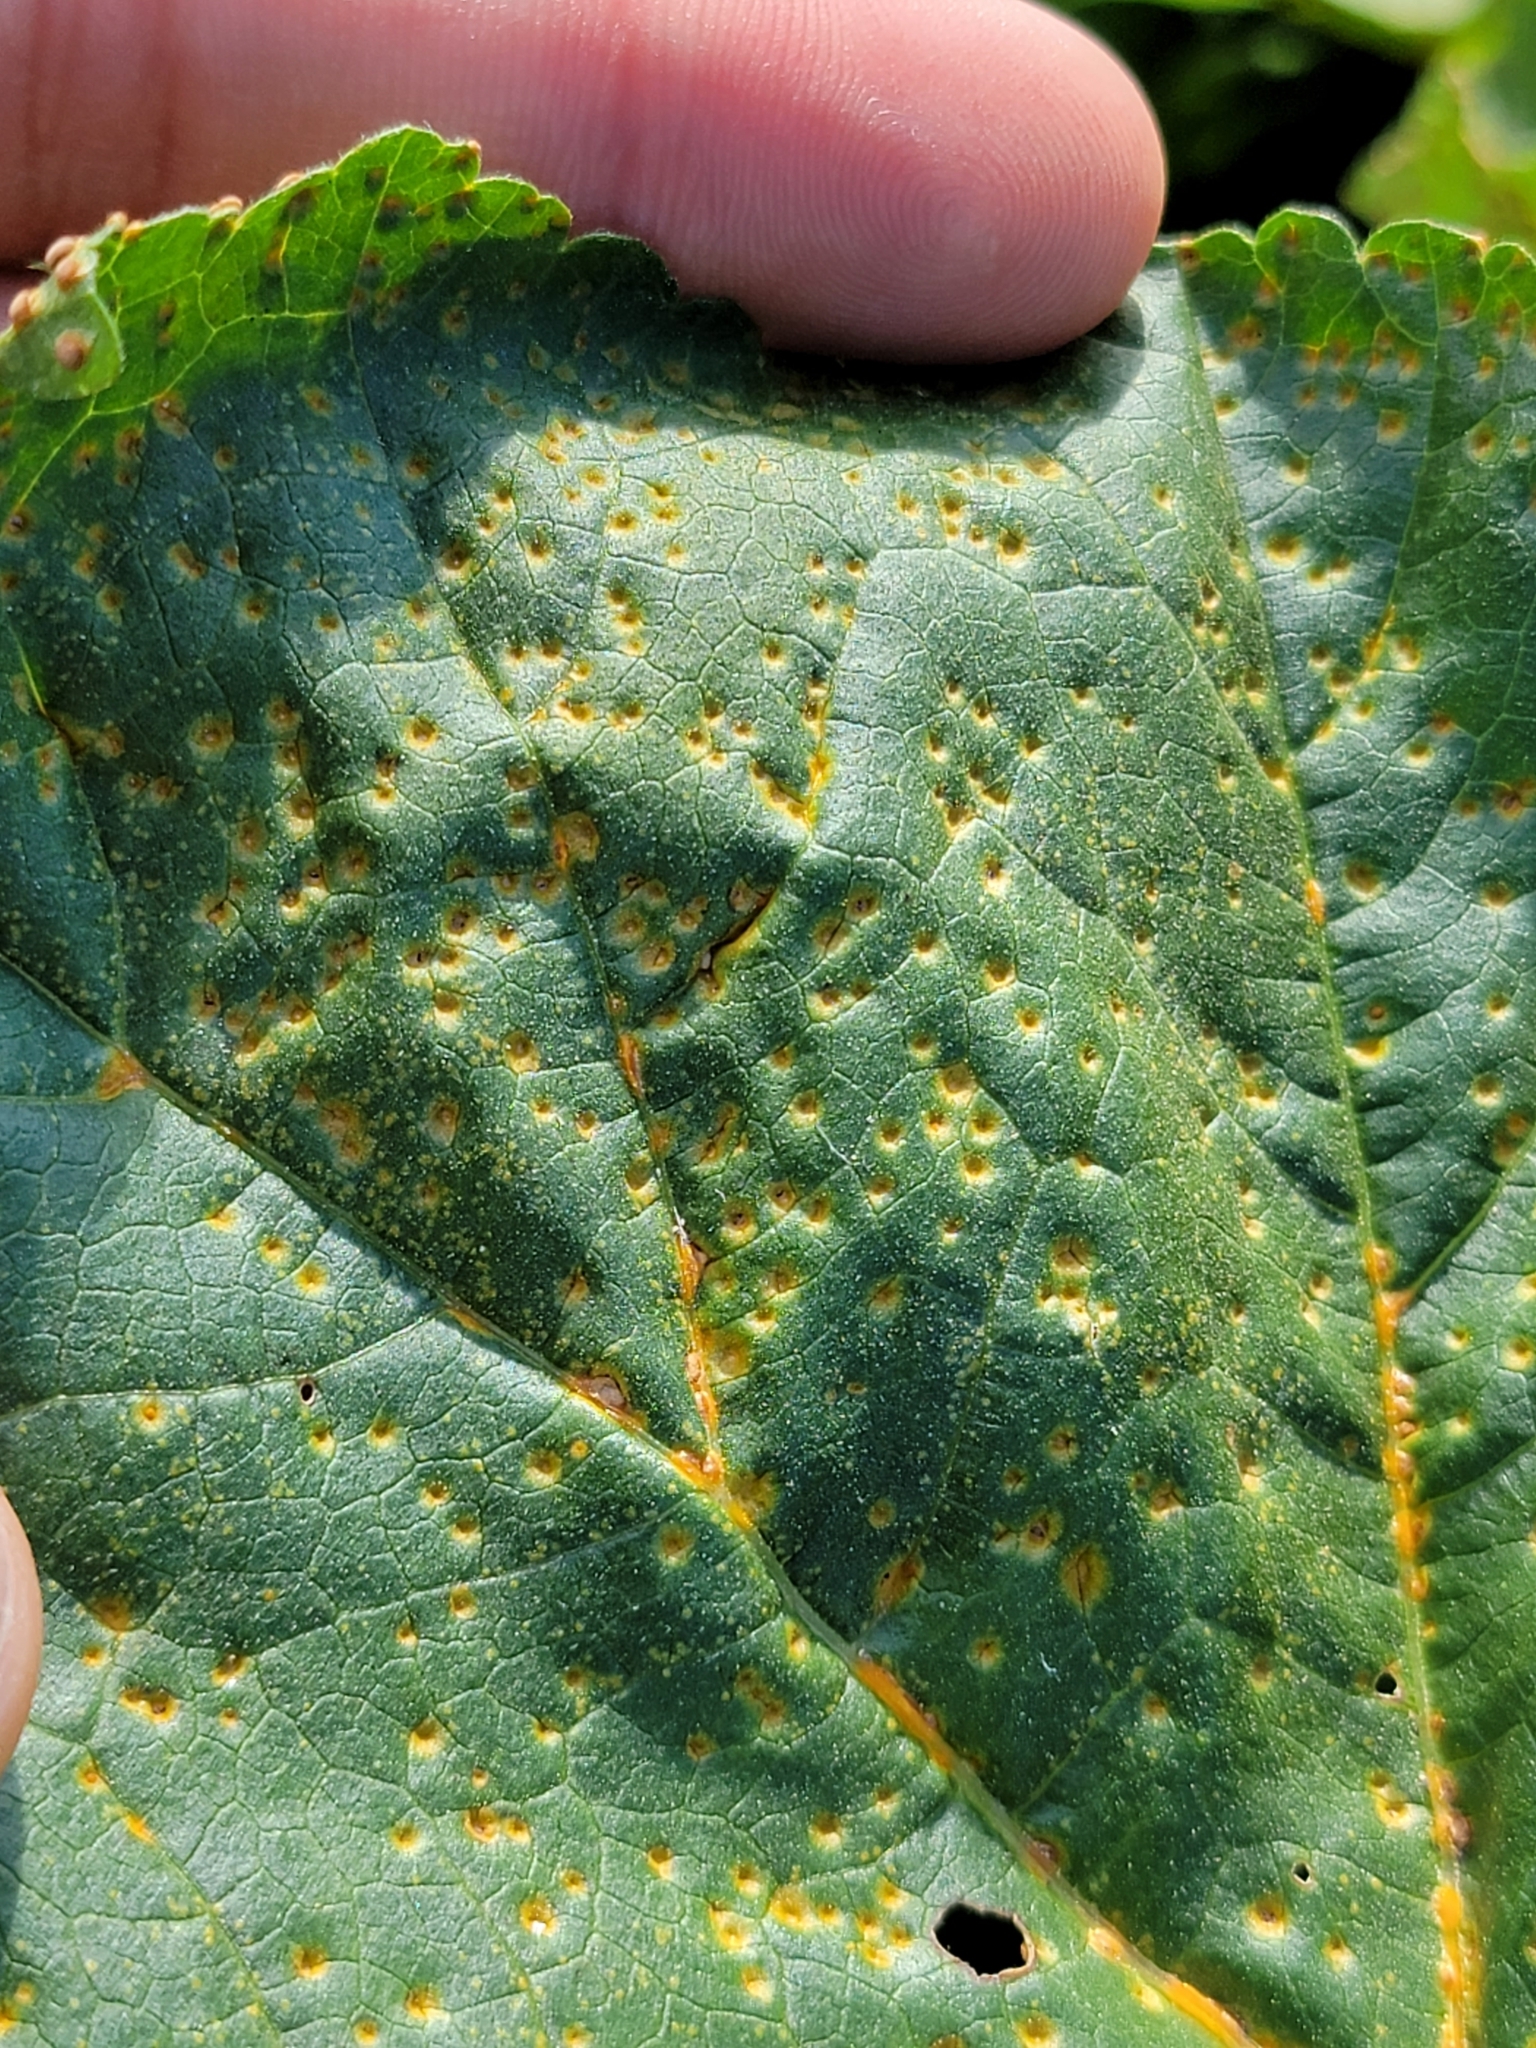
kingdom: Fungi
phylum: Basidiomycota
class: Pucciniomycetes
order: Pucciniales
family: Pucciniaceae
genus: Puccinia
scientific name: Puccinia malvacearum
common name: Hollyhock rust
